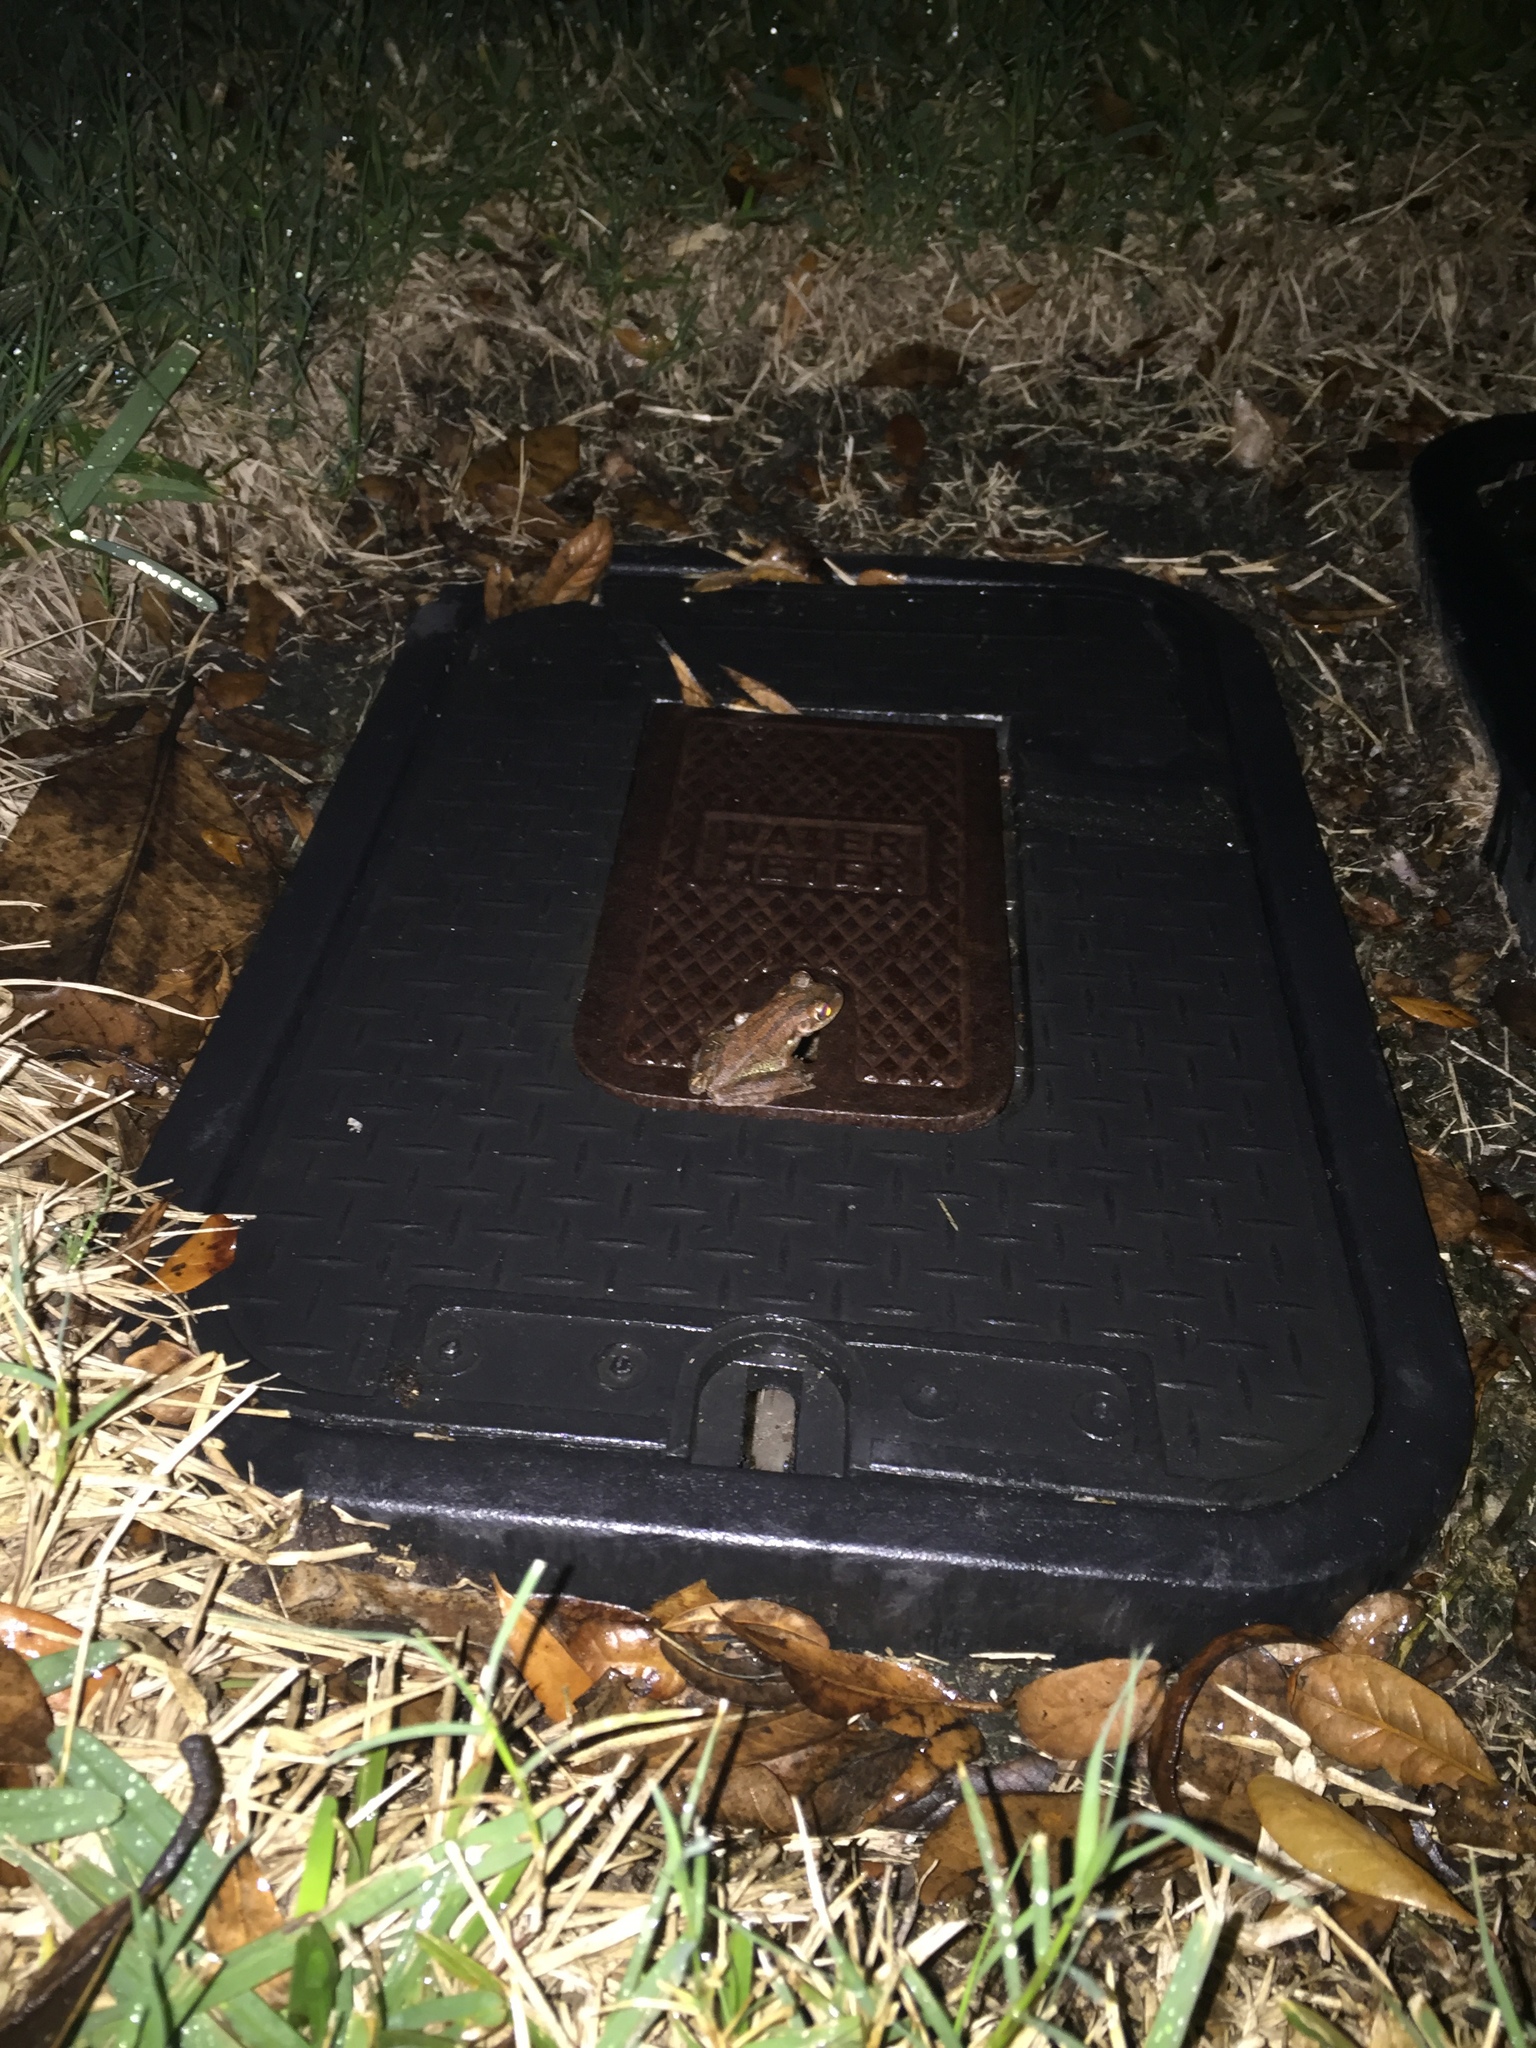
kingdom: Animalia
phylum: Chordata
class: Amphibia
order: Anura
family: Hylidae
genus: Osteopilus
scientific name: Osteopilus septentrionalis
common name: Cuban treefrog
